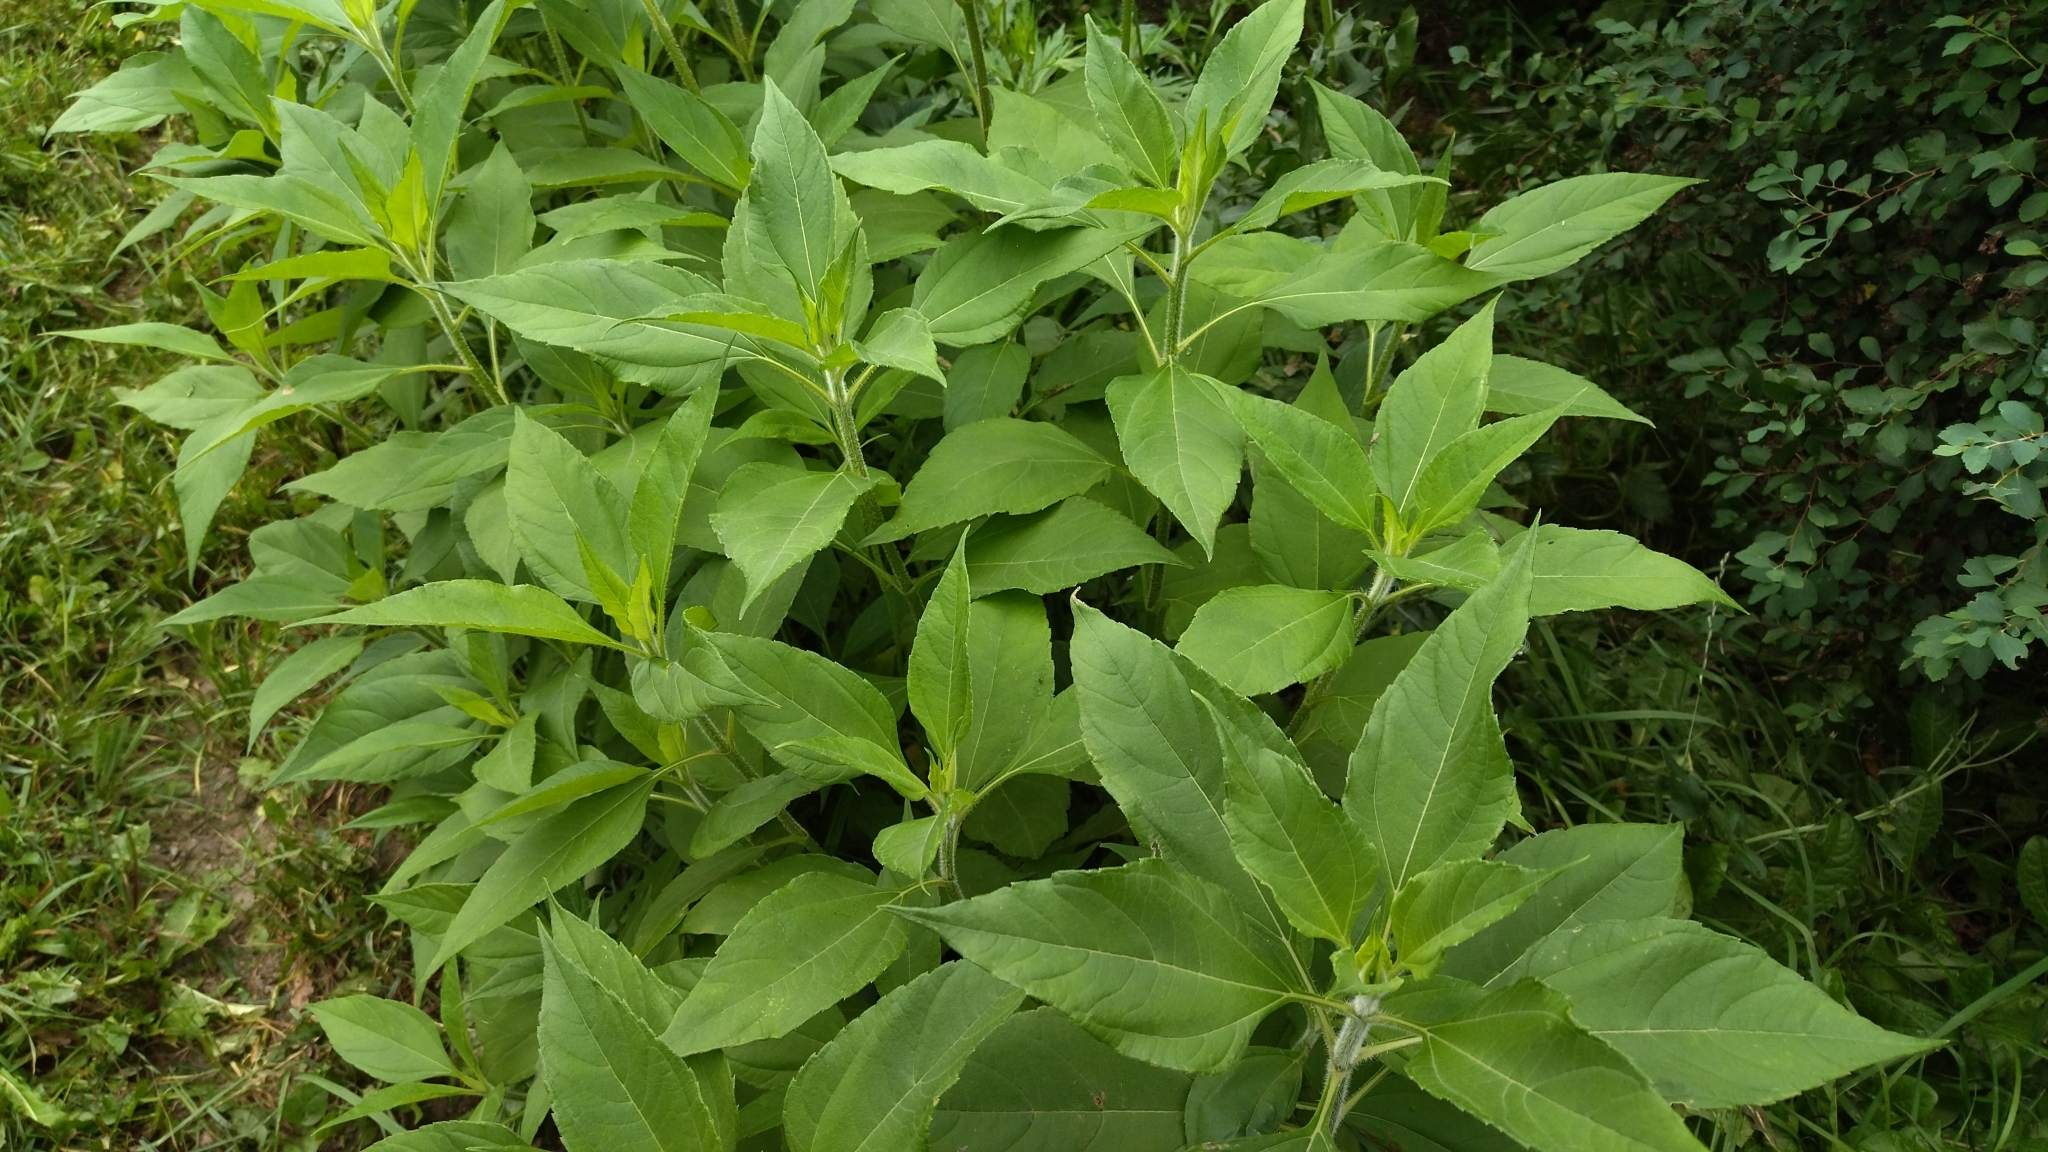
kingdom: Plantae
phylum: Tracheophyta
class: Magnoliopsida
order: Asterales
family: Asteraceae
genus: Helianthus
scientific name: Helianthus tuberosus
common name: Jerusalem artichoke
